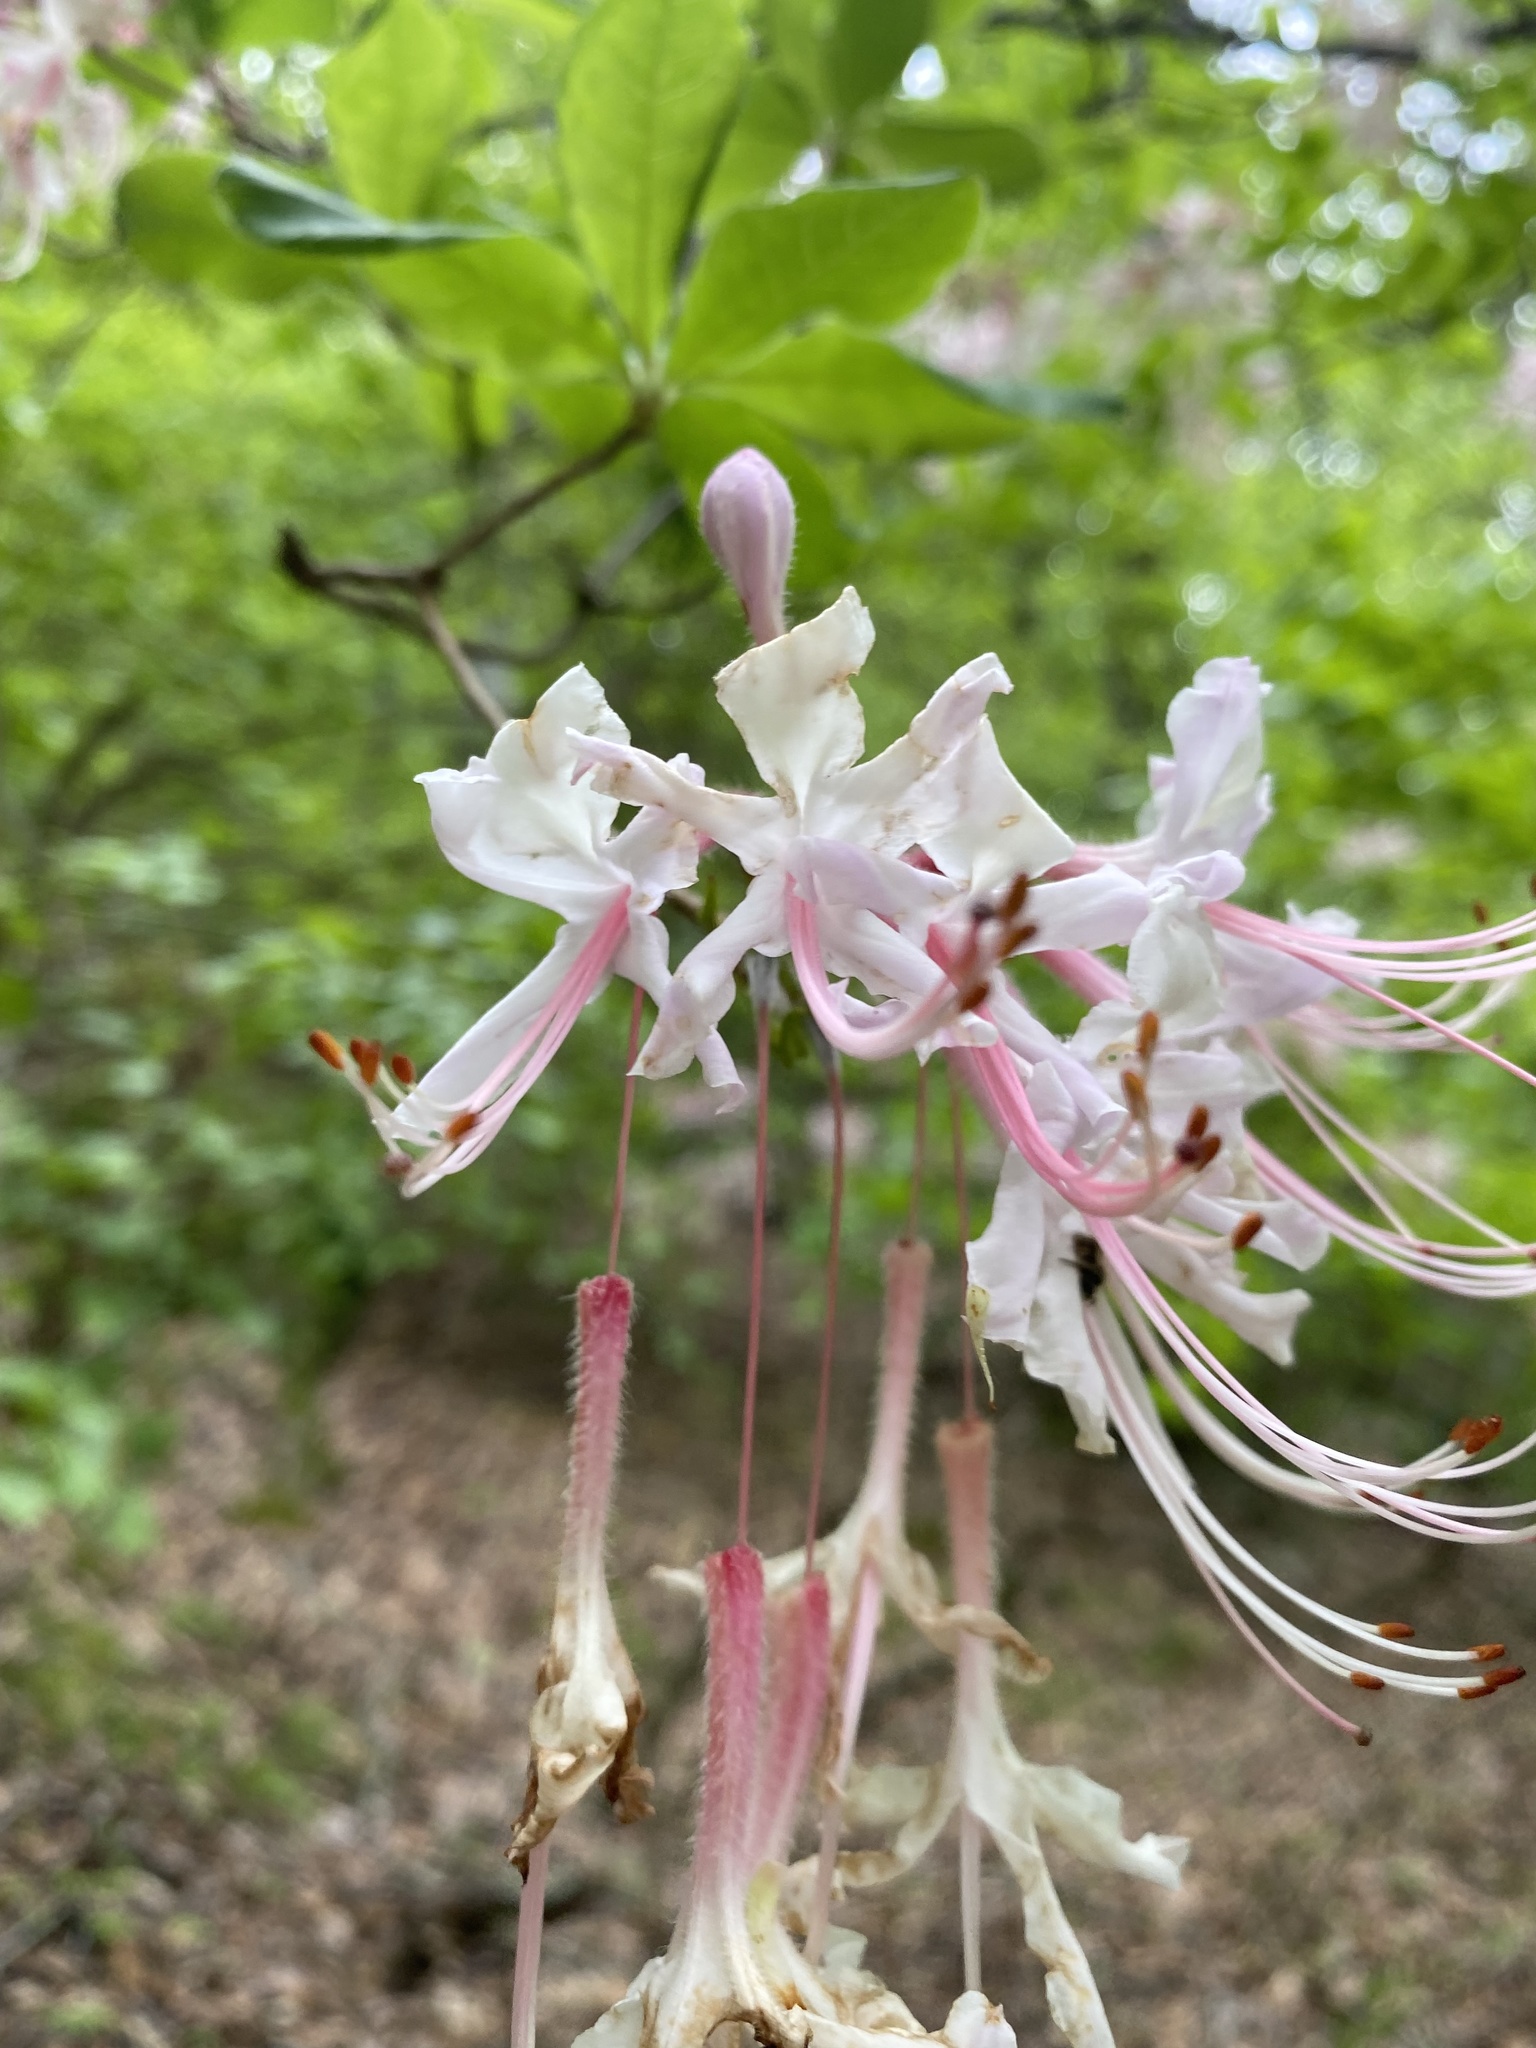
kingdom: Plantae
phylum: Tracheophyta
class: Magnoliopsida
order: Ericales
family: Ericaceae
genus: Rhododendron
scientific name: Rhododendron periclymenoides
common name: Election-pink
